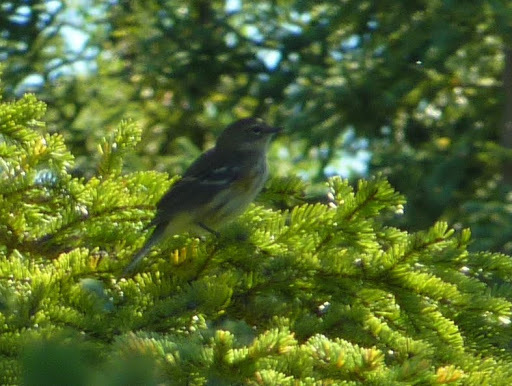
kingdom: Animalia
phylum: Chordata
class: Aves
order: Passeriformes
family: Parulidae
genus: Setophaga
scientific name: Setophaga coronata
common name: Myrtle warbler
